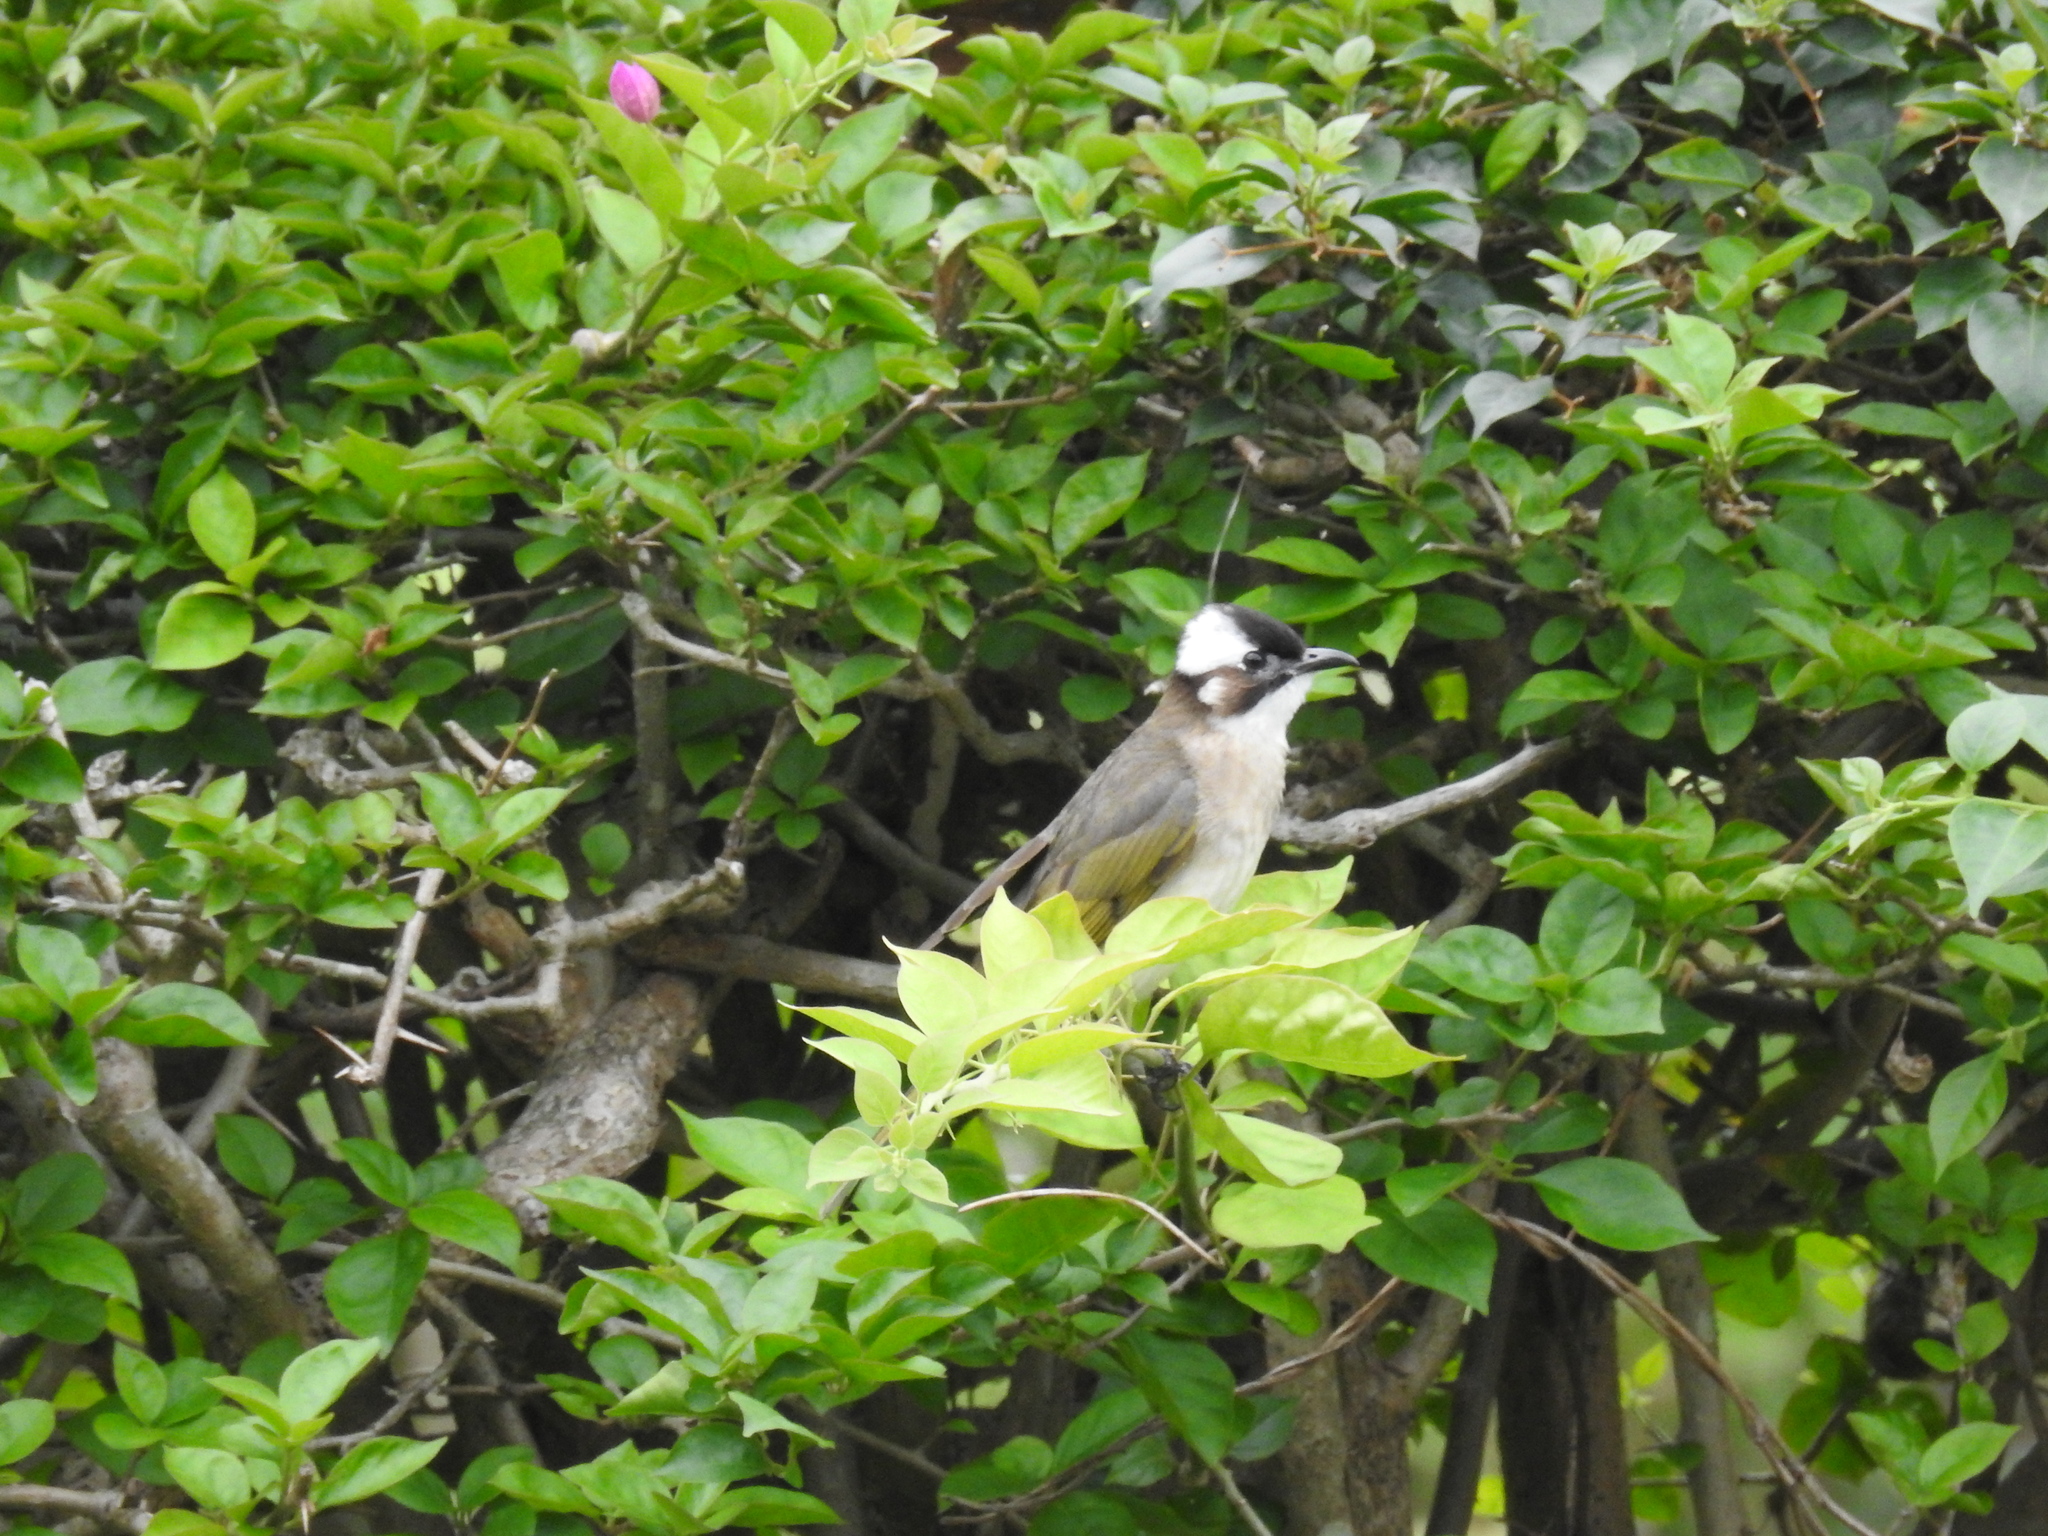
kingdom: Animalia
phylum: Chordata
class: Aves
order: Passeriformes
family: Pycnonotidae
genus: Pycnonotus
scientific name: Pycnonotus sinensis
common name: Light-vented bulbul
